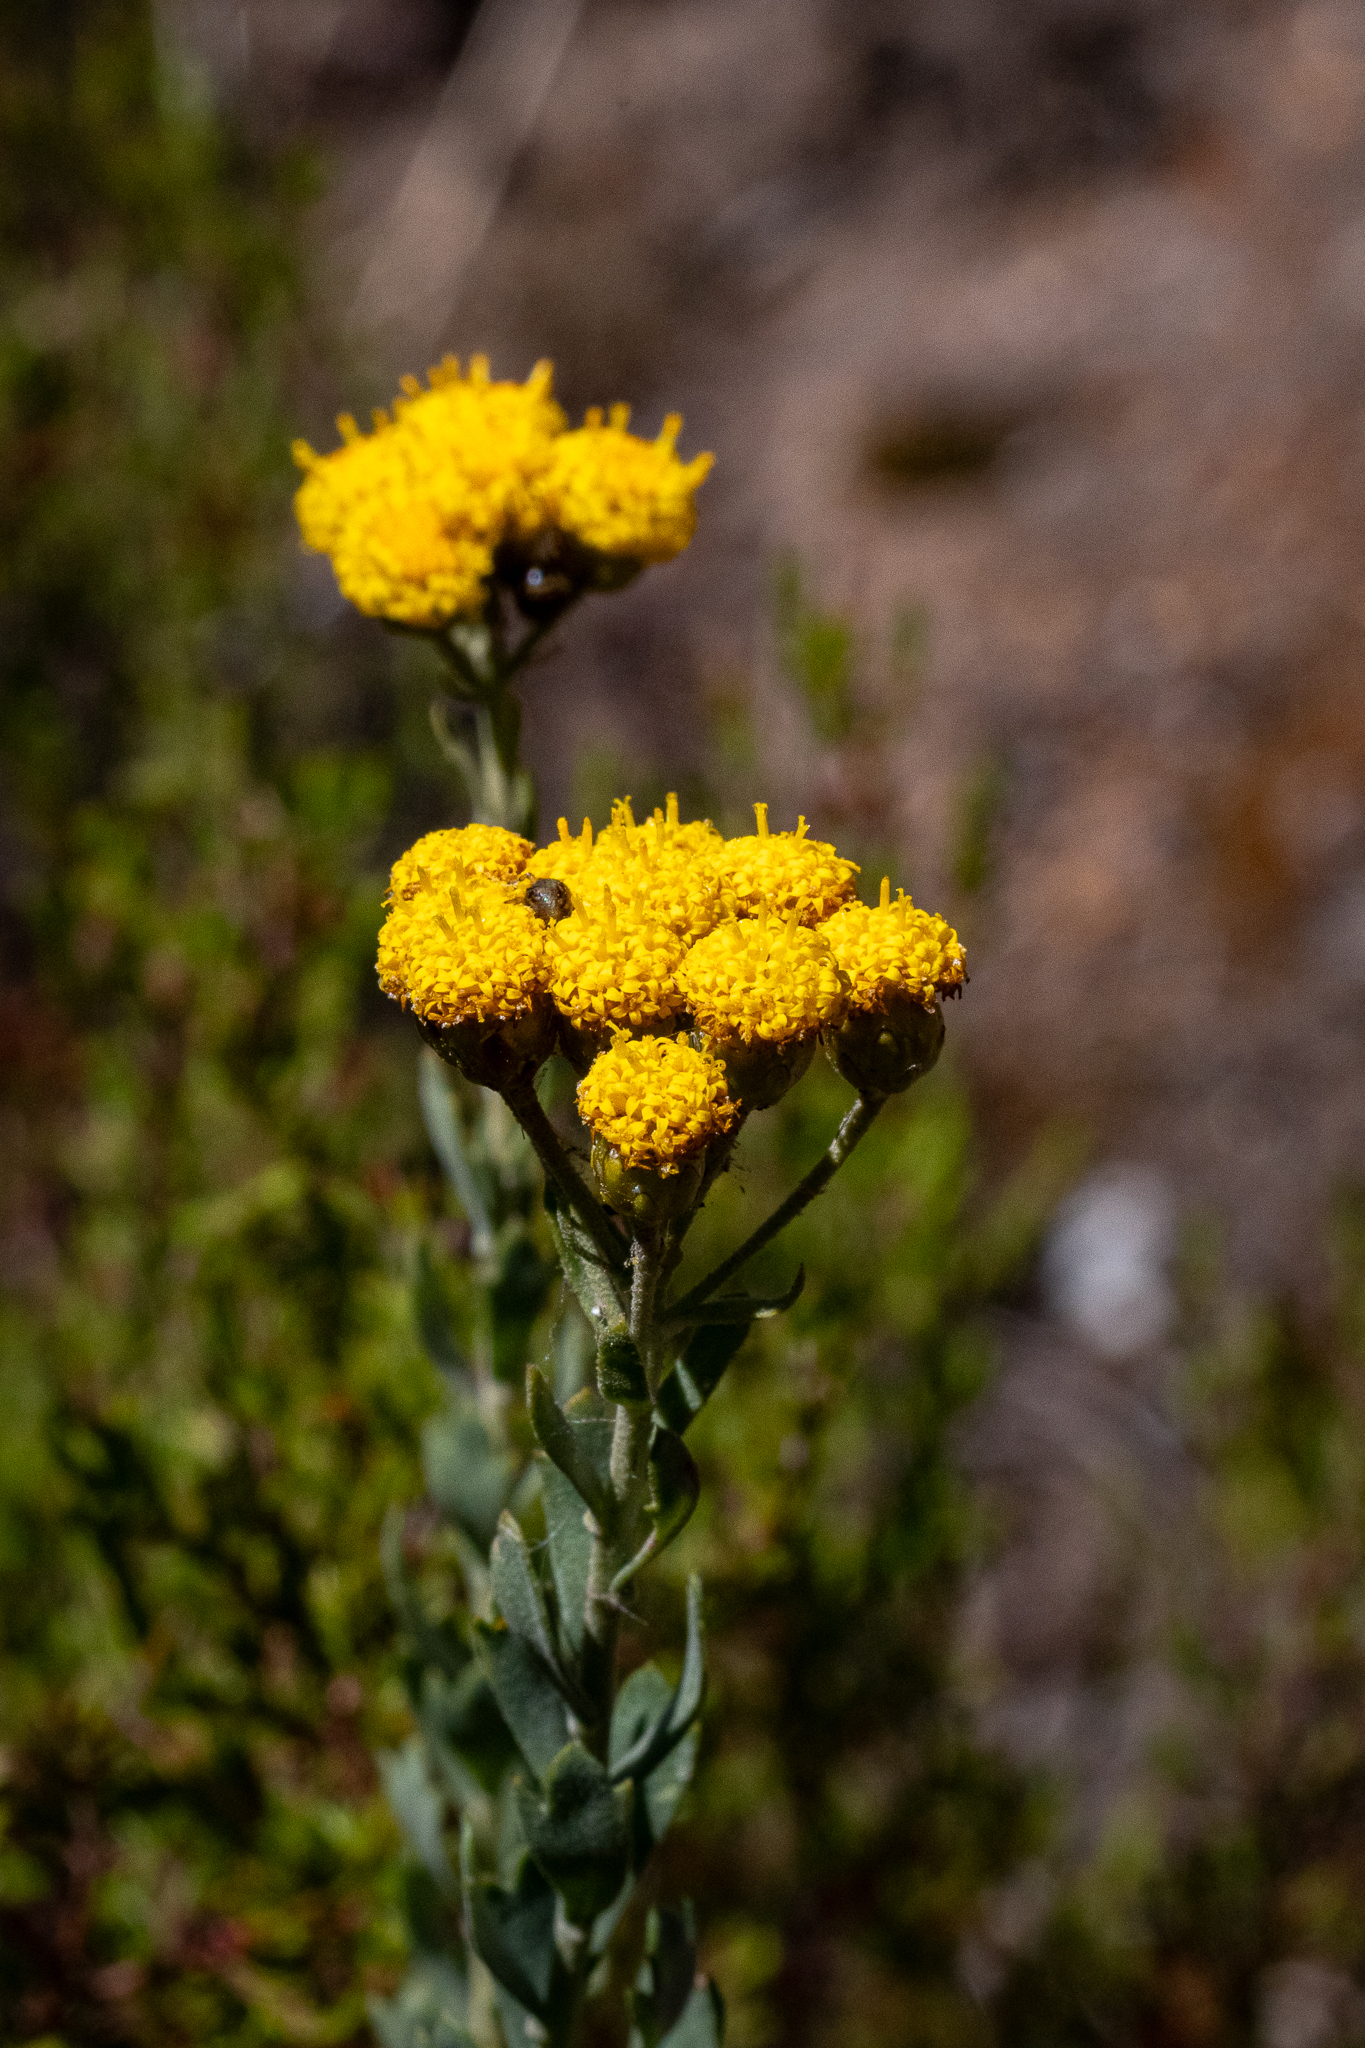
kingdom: Plantae
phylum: Tracheophyta
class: Magnoliopsida
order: Asterales
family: Asteraceae
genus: Athanasia
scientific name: Athanasia trifurcata
